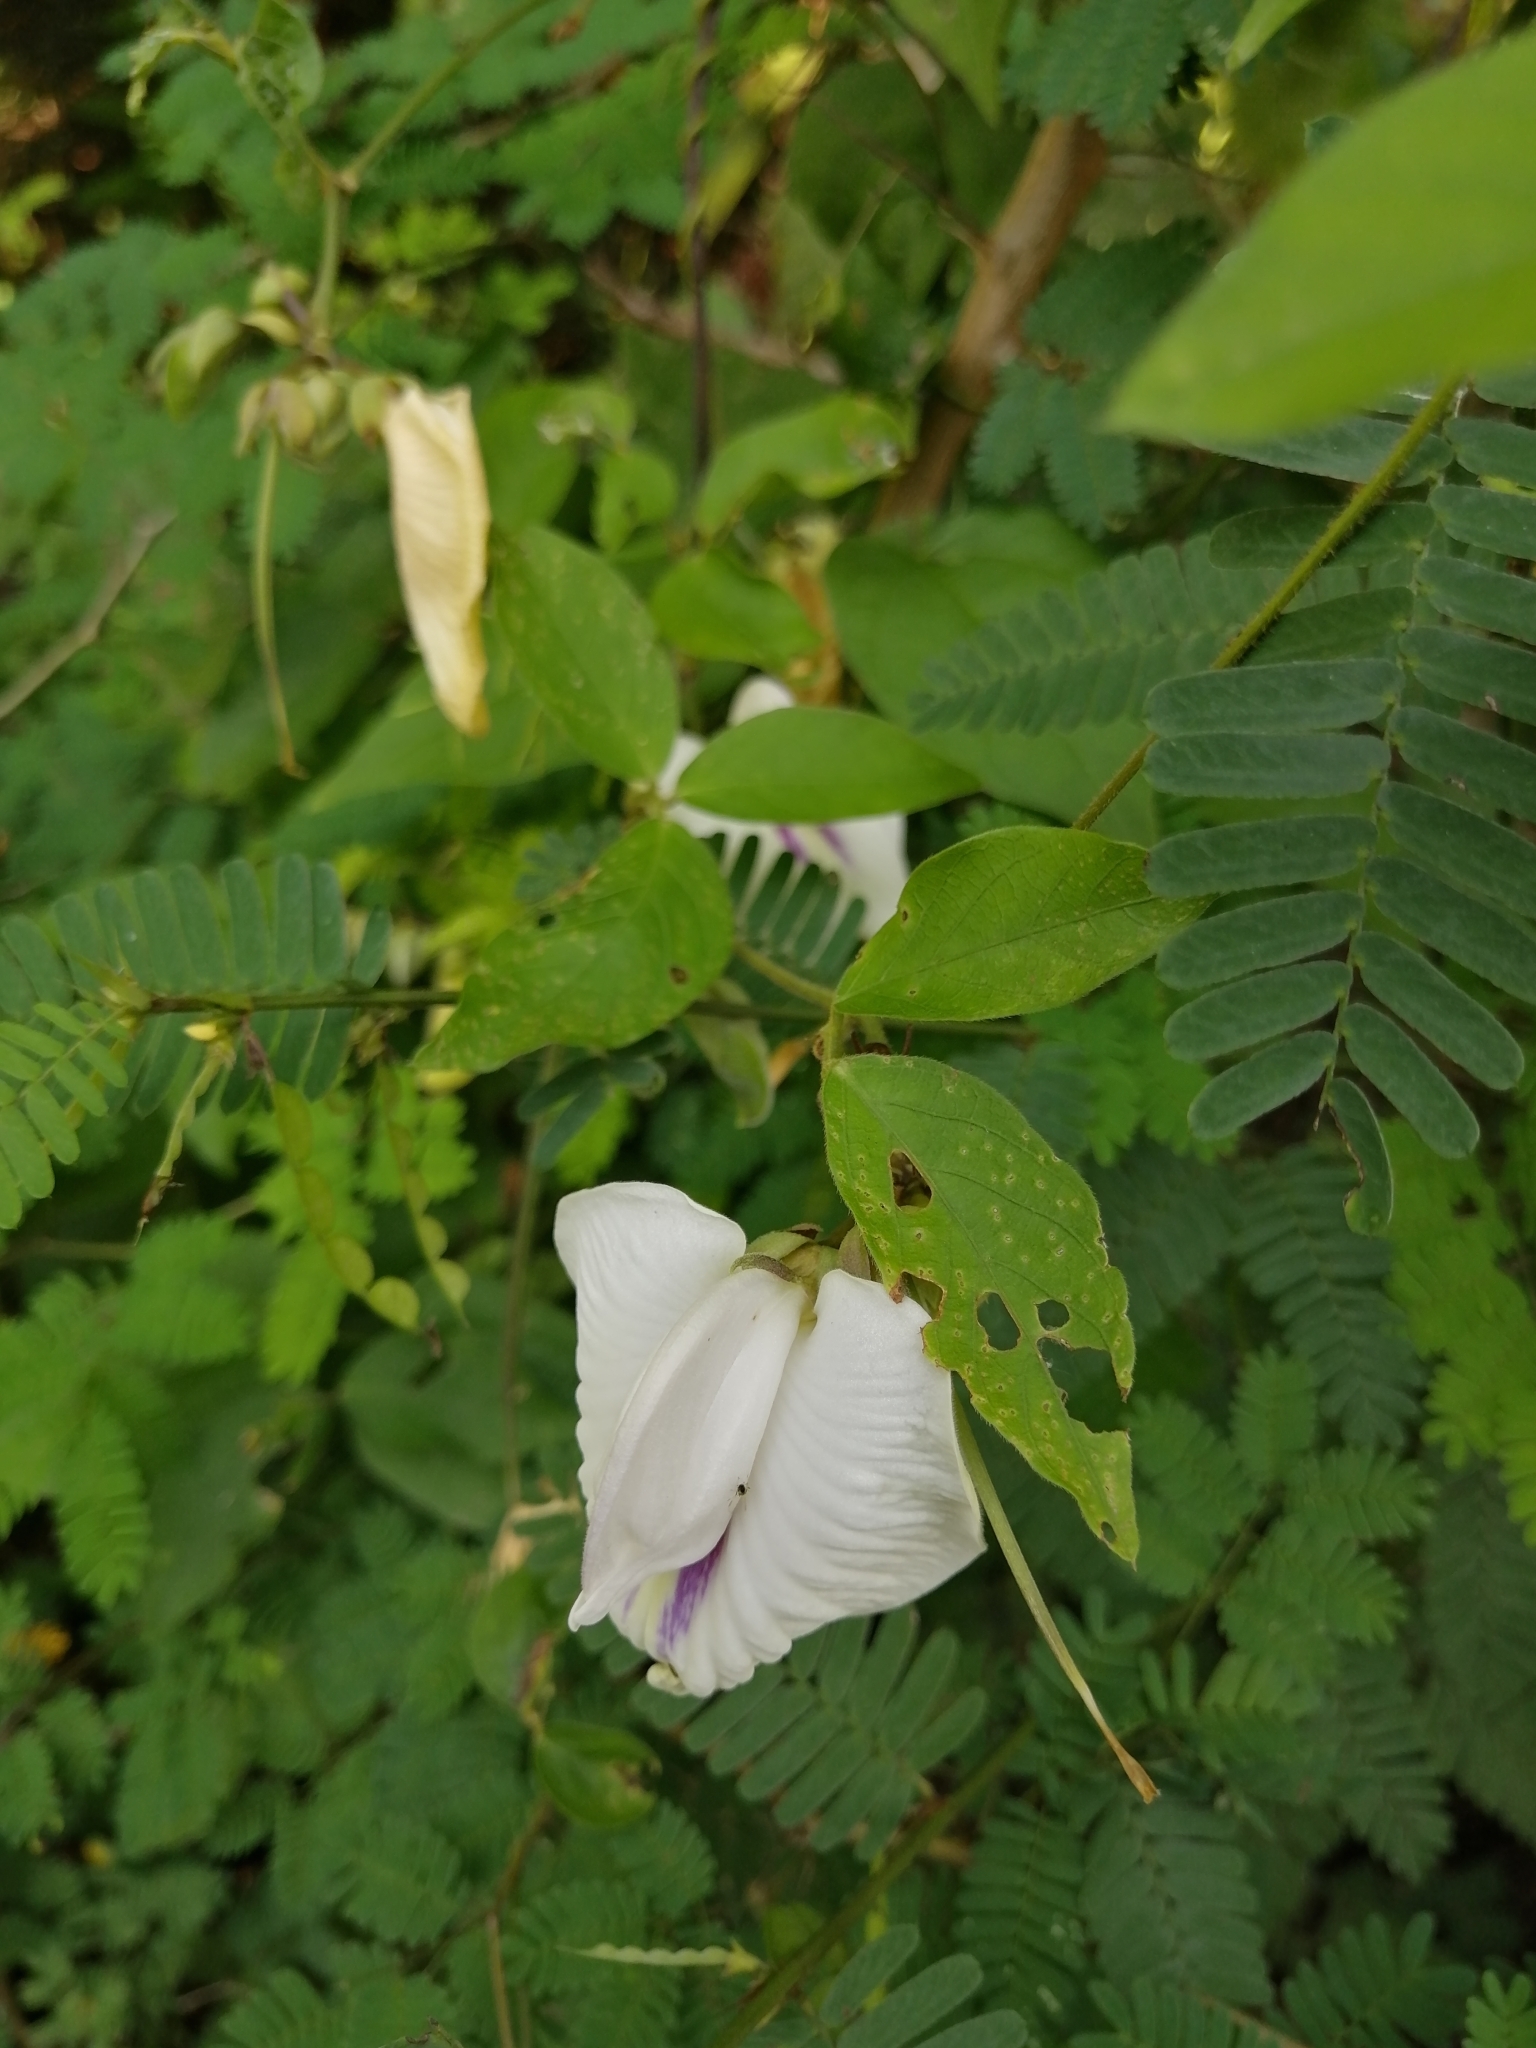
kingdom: Plantae
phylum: Tracheophyta
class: Magnoliopsida
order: Fabales
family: Fabaceae
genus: Centrosema
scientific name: Centrosema pubescens
